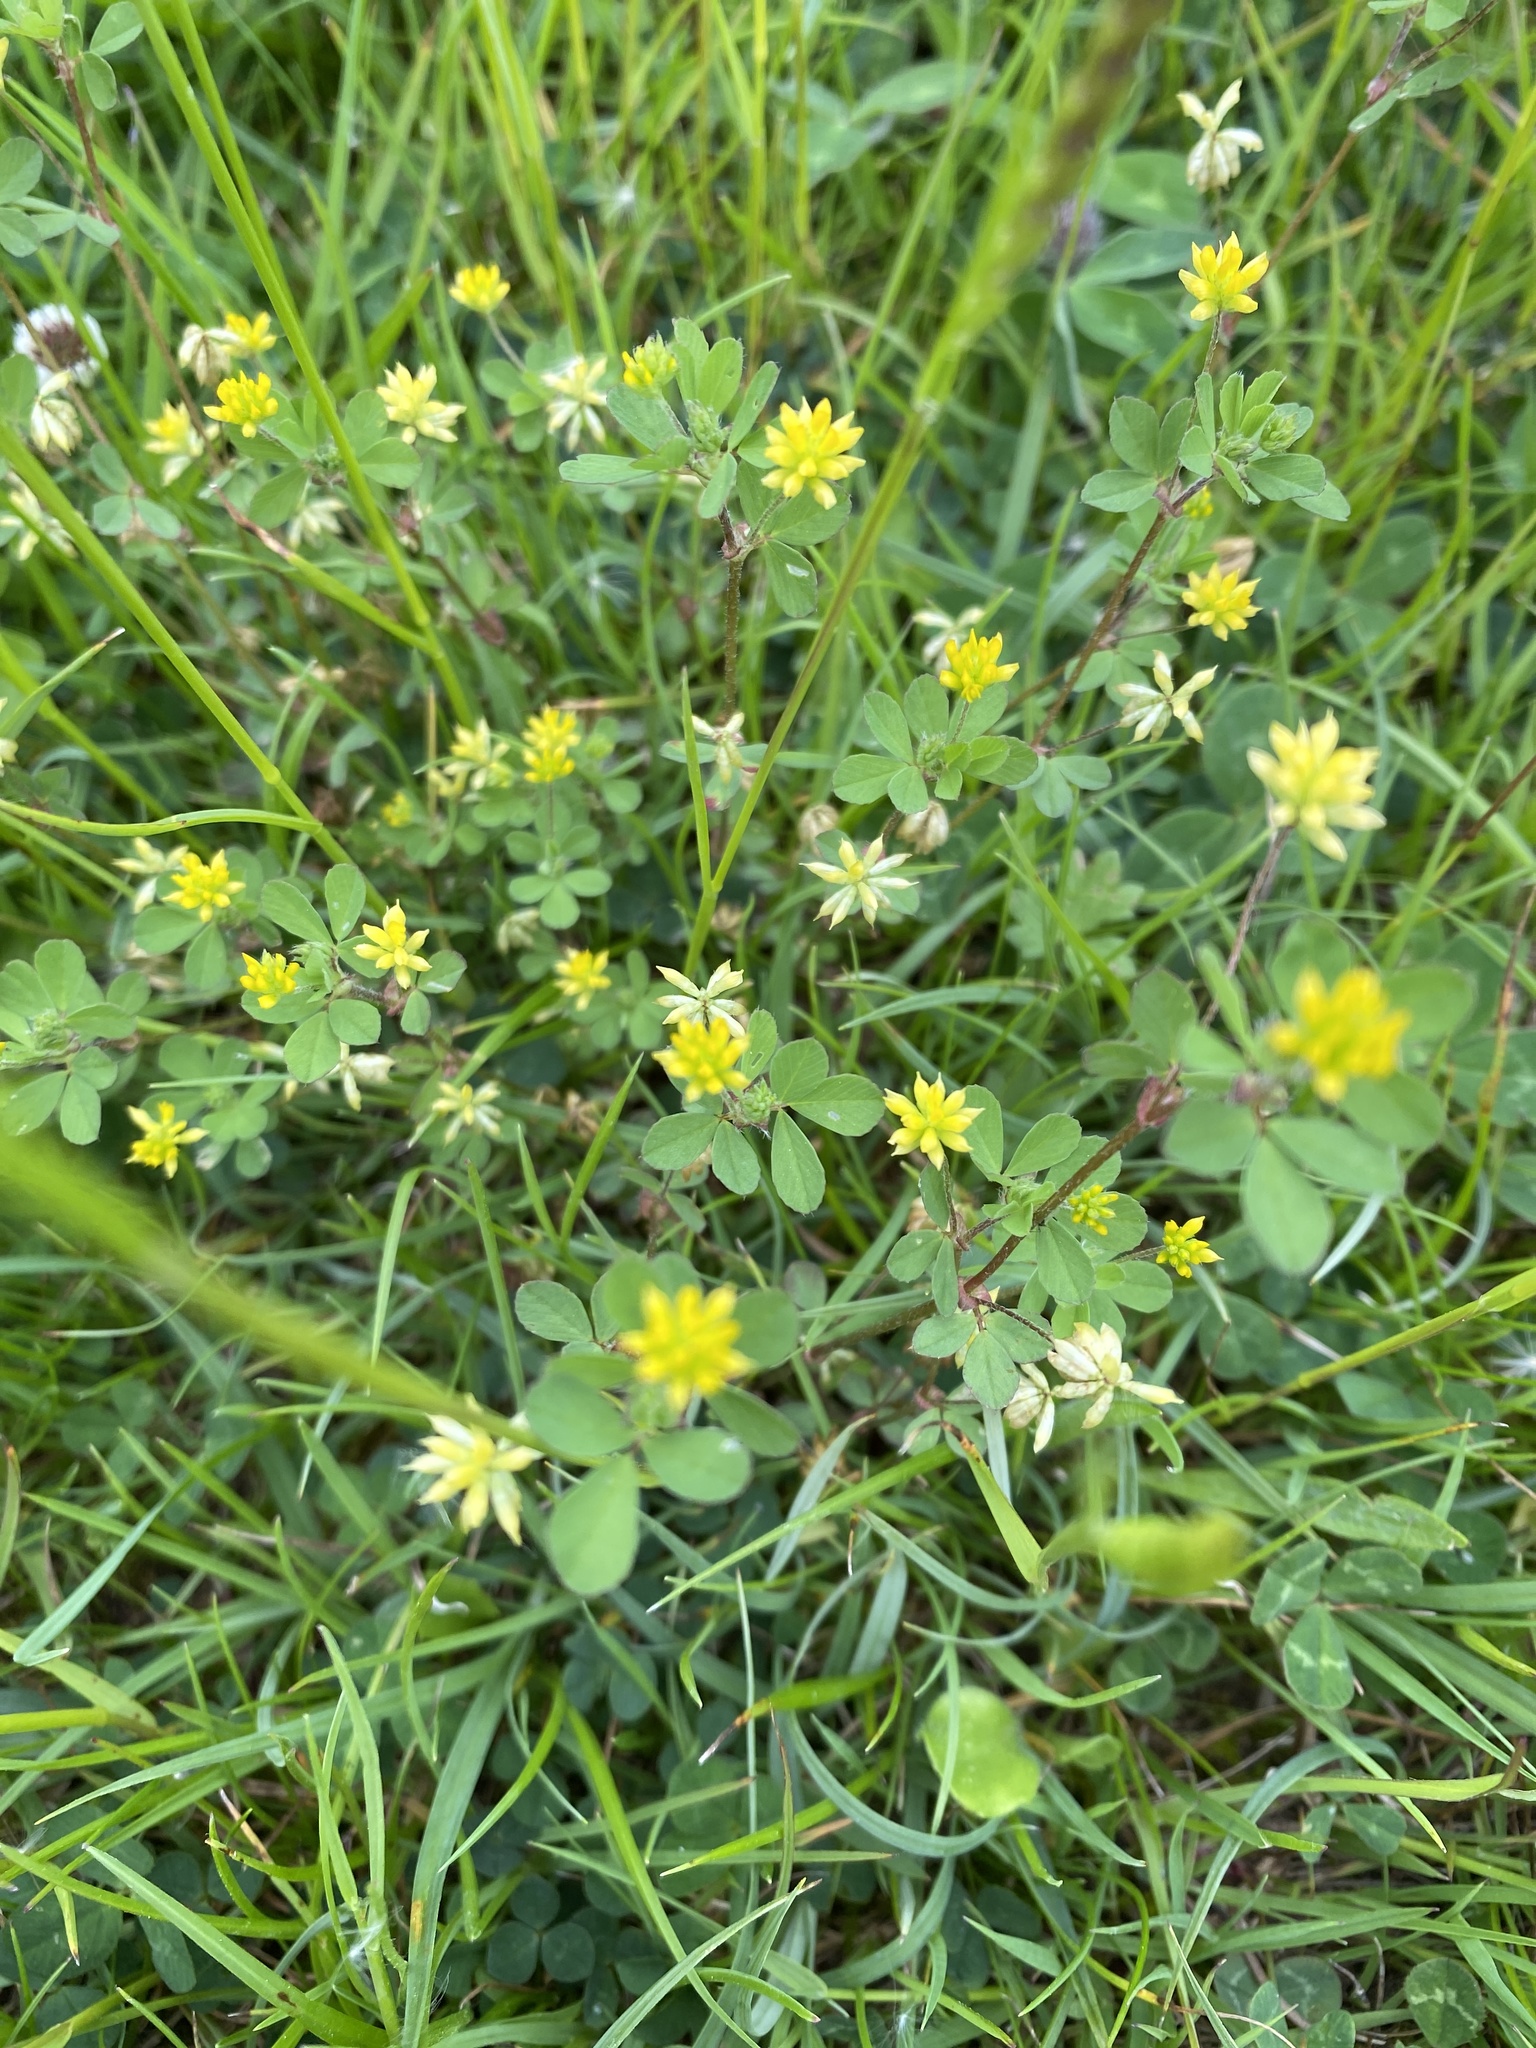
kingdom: Plantae
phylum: Tracheophyta
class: Magnoliopsida
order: Fabales
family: Fabaceae
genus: Trifolium
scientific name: Trifolium dubium
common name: Suckling clover
